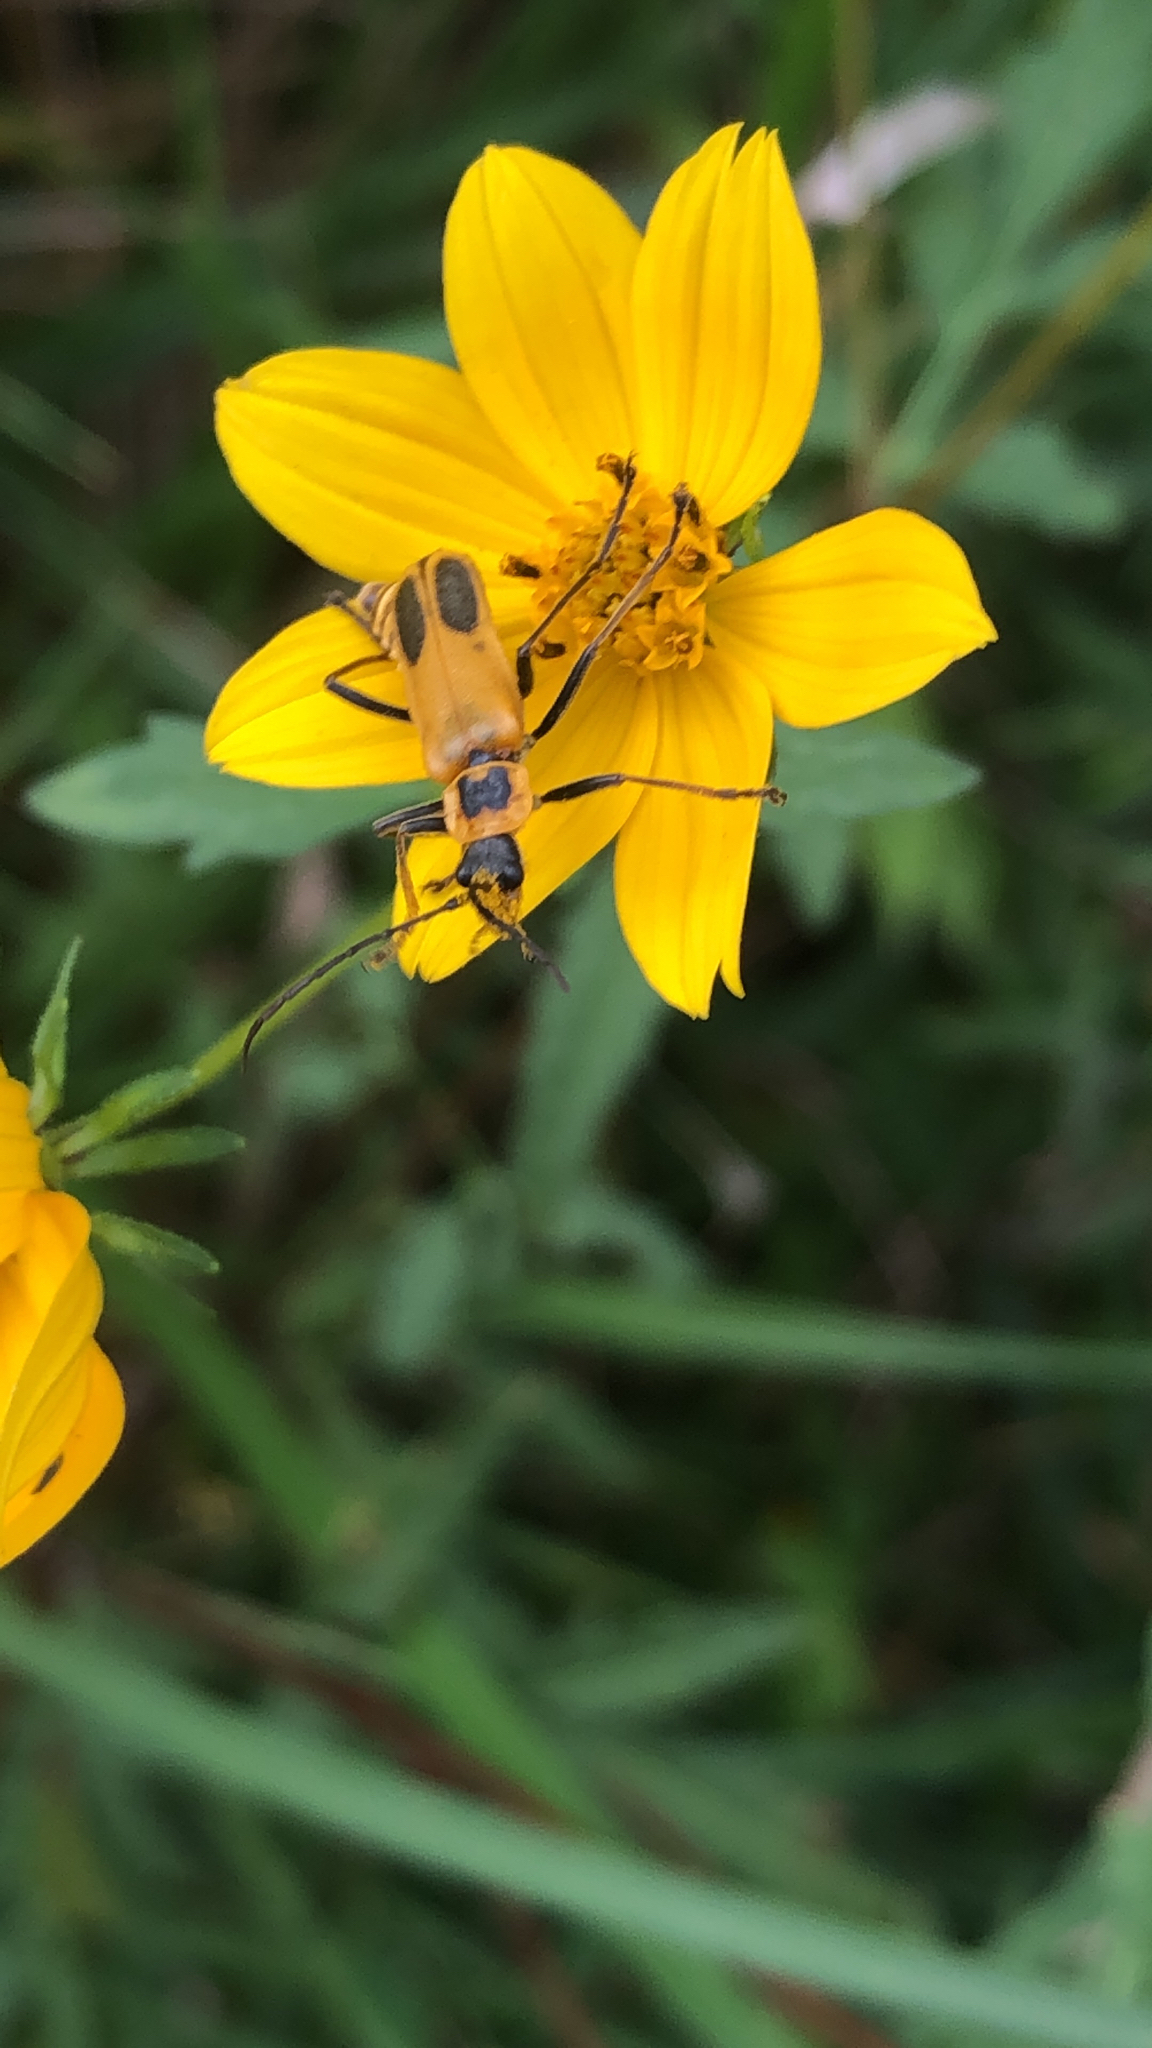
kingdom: Animalia
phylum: Arthropoda
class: Insecta
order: Coleoptera
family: Cantharidae
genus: Chauliognathus
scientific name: Chauliognathus pensylvanicus
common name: Goldenrod soldier beetle
